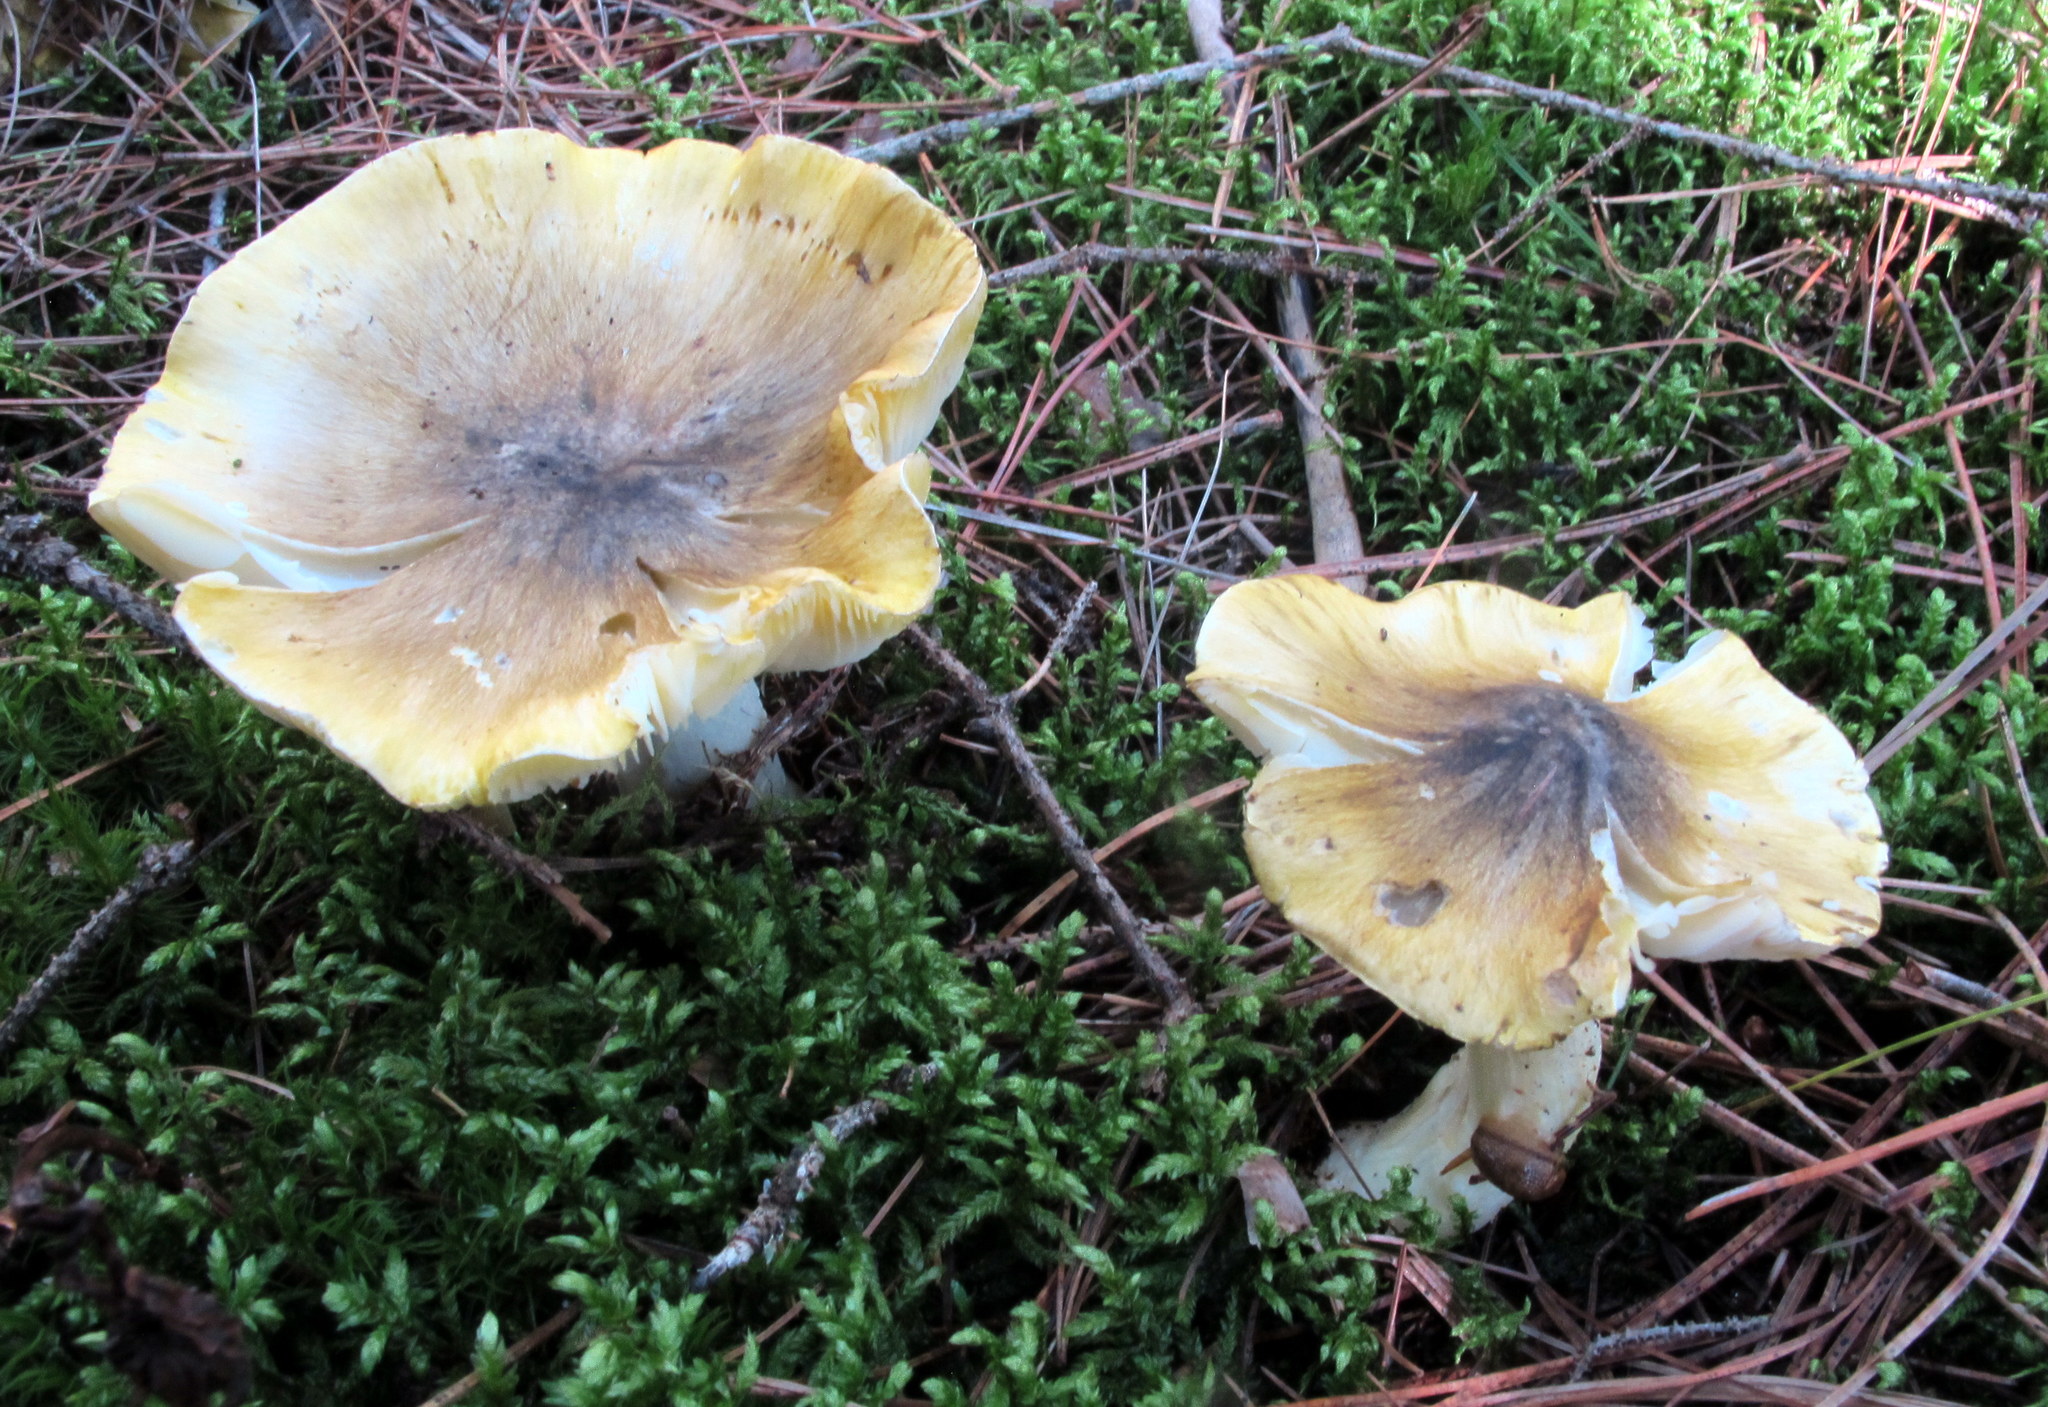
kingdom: Fungi
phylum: Basidiomycota
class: Agaricomycetes
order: Agaricales
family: Tricholomataceae
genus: Melanoleuca
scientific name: Melanoleuca davisiae
